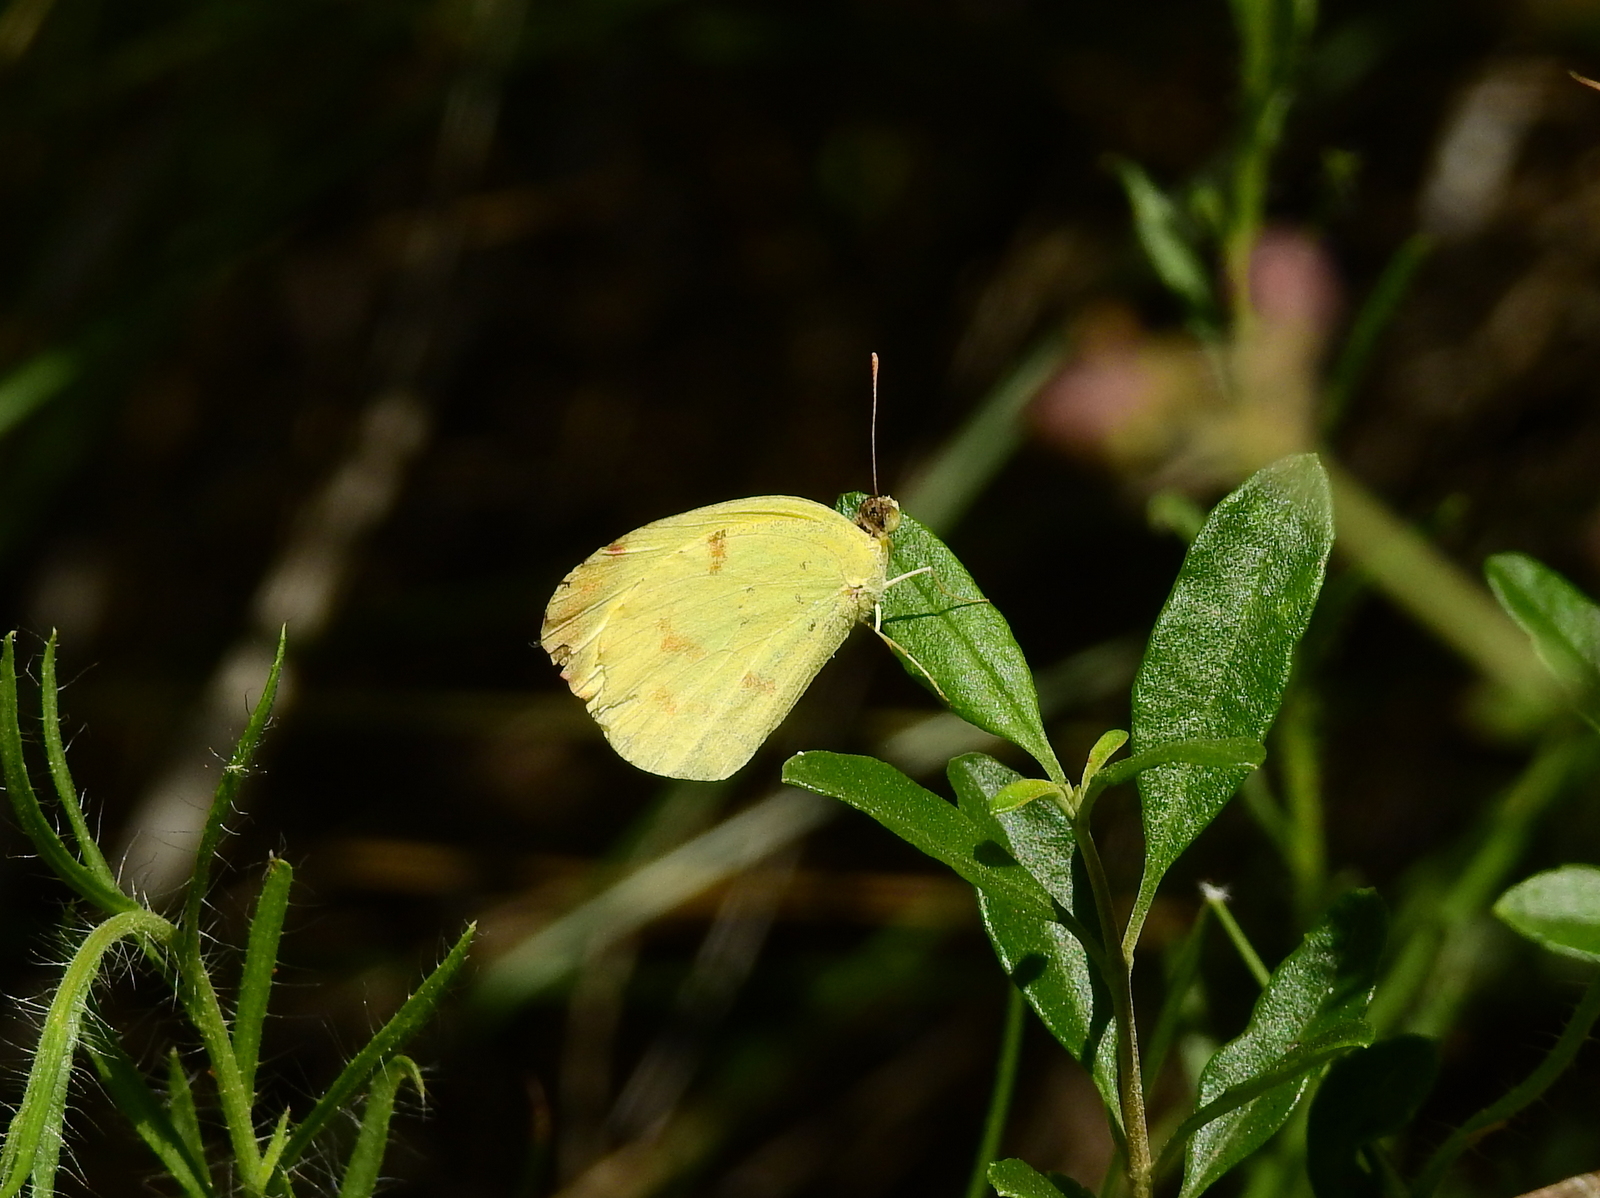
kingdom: Animalia
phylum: Arthropoda
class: Insecta
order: Lepidoptera
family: Pieridae
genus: Teriocolias
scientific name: Teriocolias
